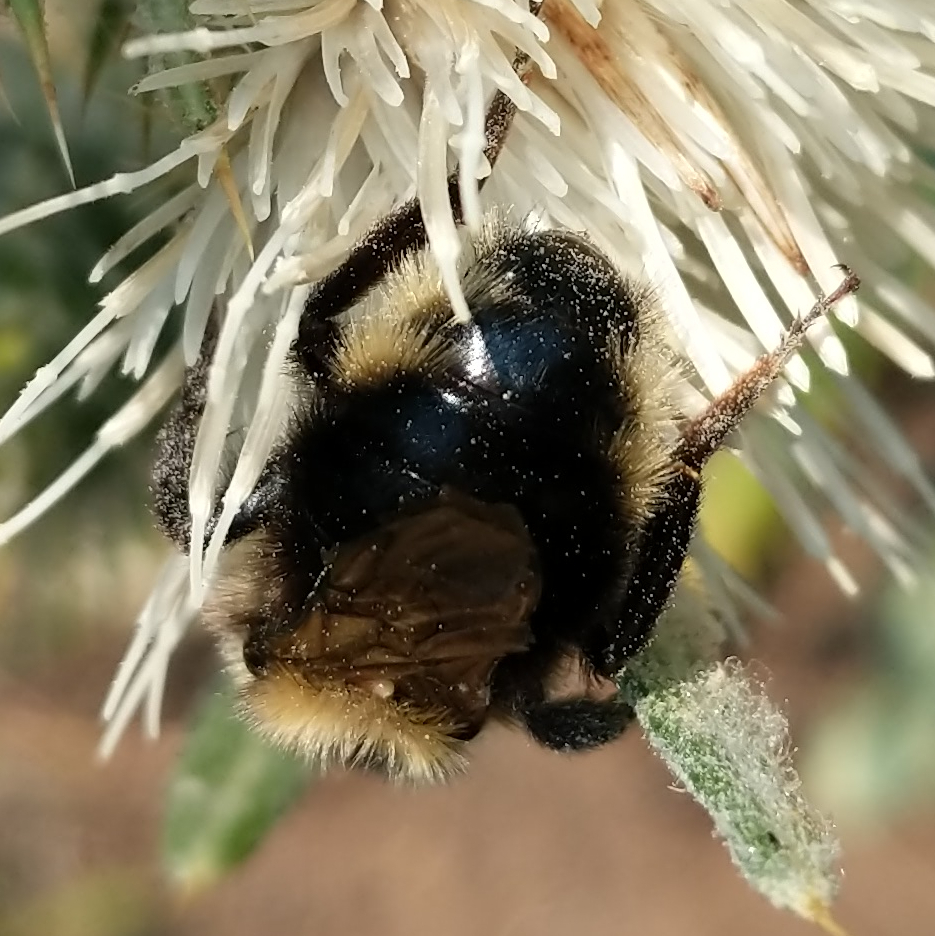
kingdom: Animalia
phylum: Arthropoda
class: Insecta
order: Hymenoptera
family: Apidae
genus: Bombus
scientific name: Bombus insularis
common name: Indiscriminate cuckoo bumble bee
